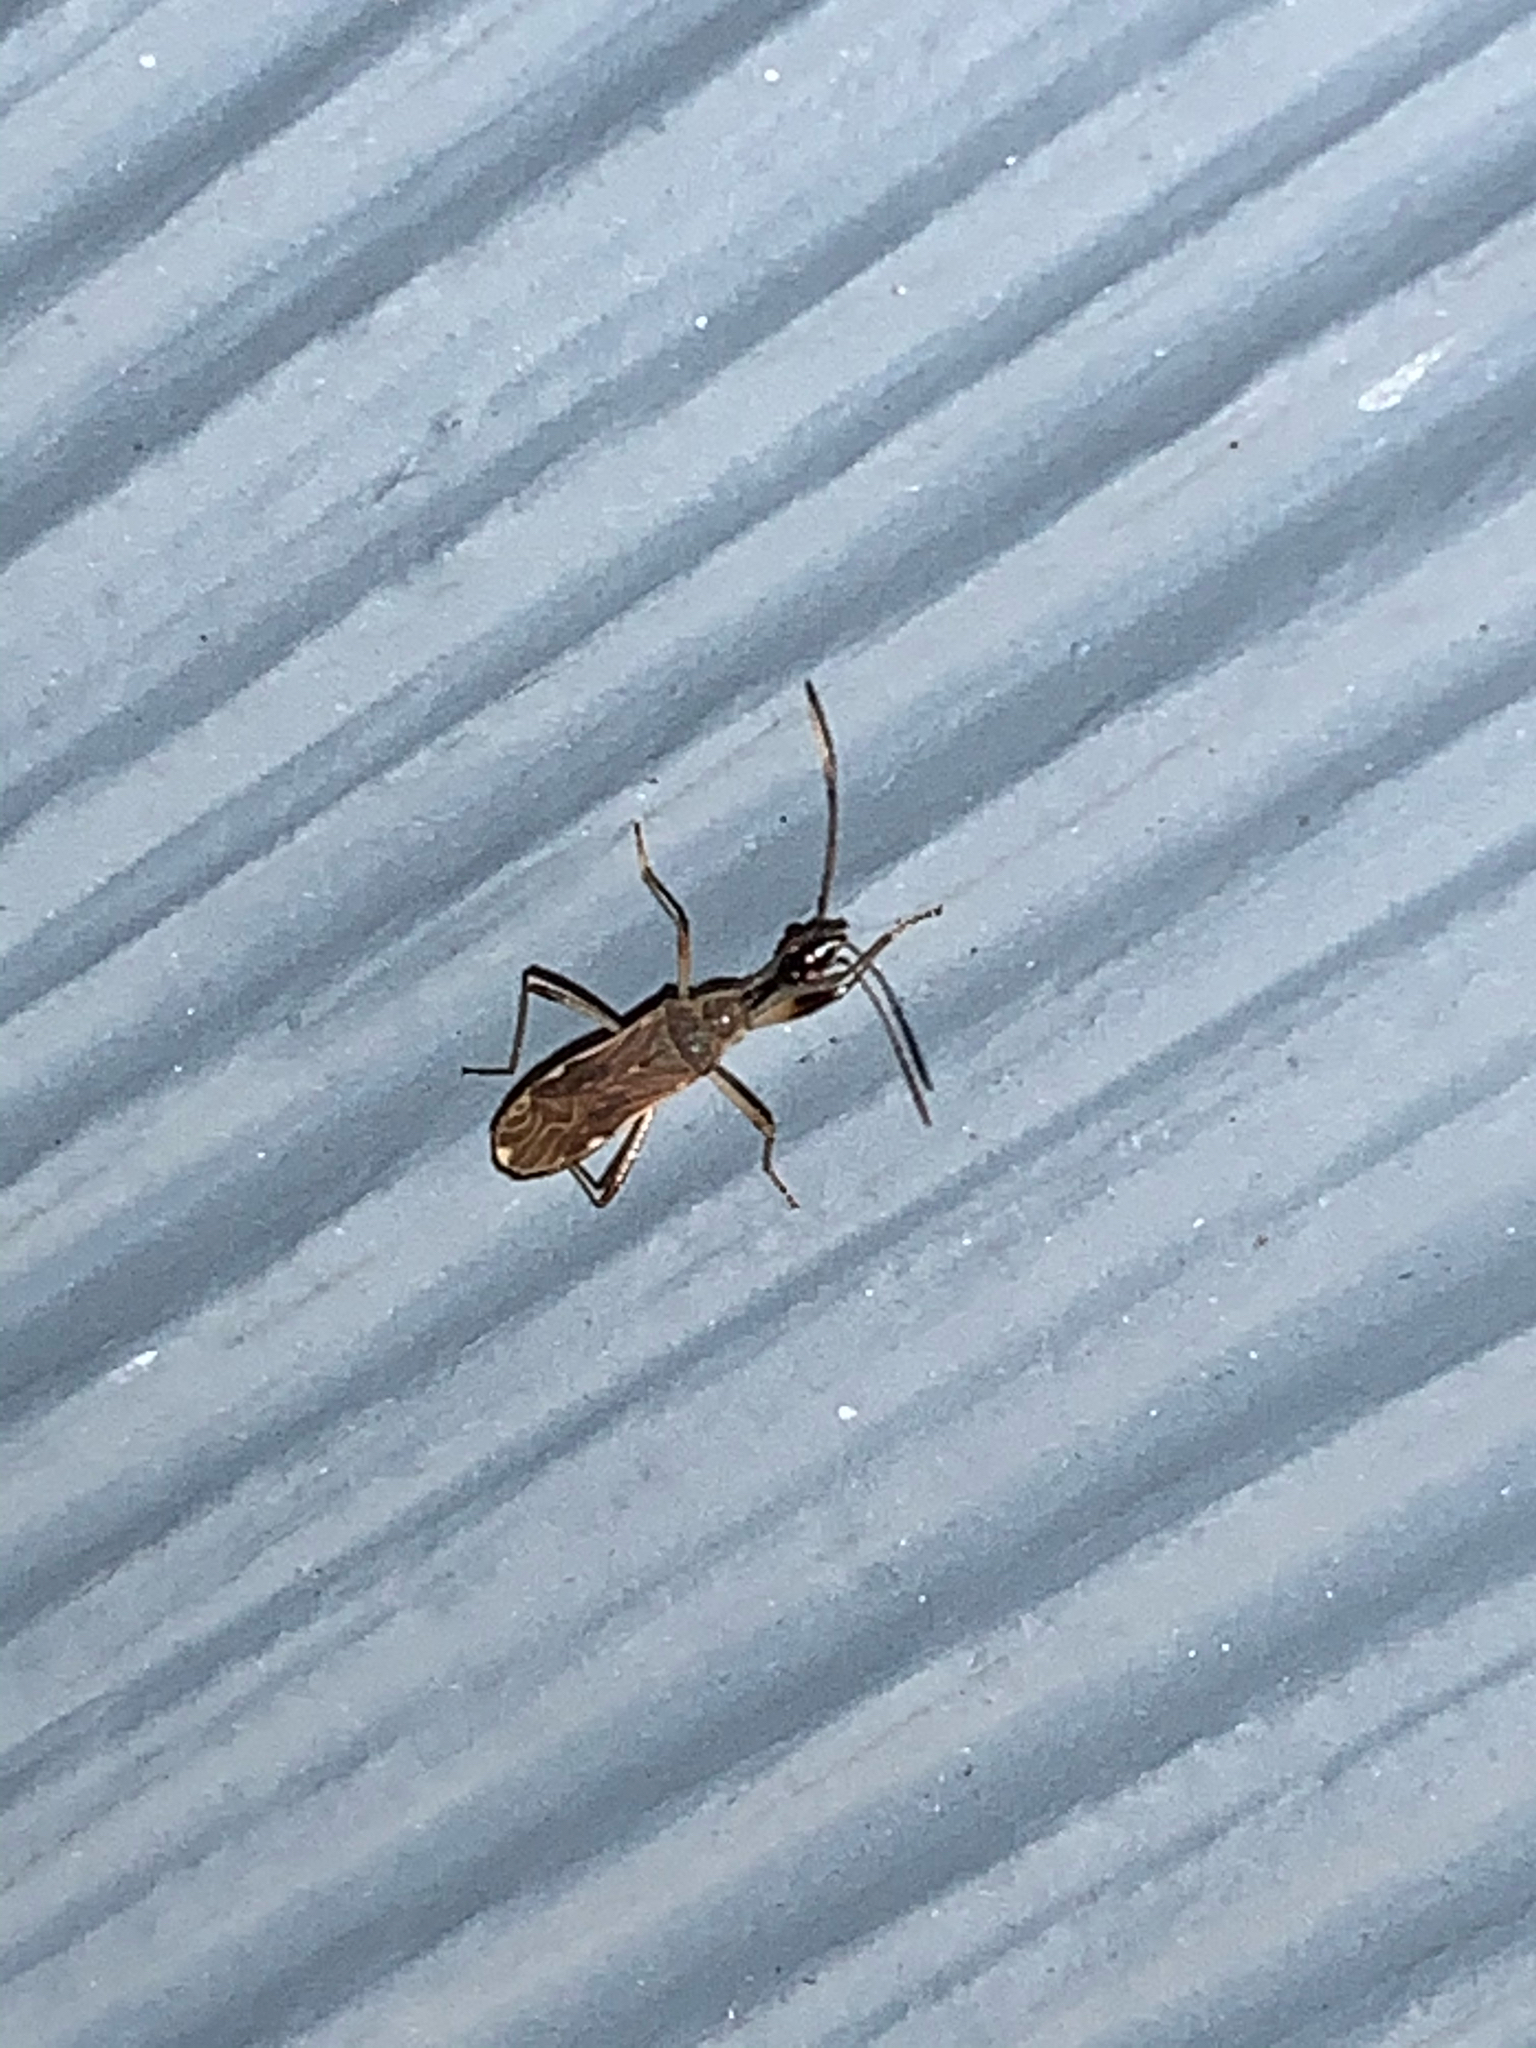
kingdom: Animalia
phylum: Arthropoda
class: Insecta
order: Hemiptera
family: Rhyparochromidae
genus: Myodocha
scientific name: Myodocha serripes
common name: Long-necked seed bug
